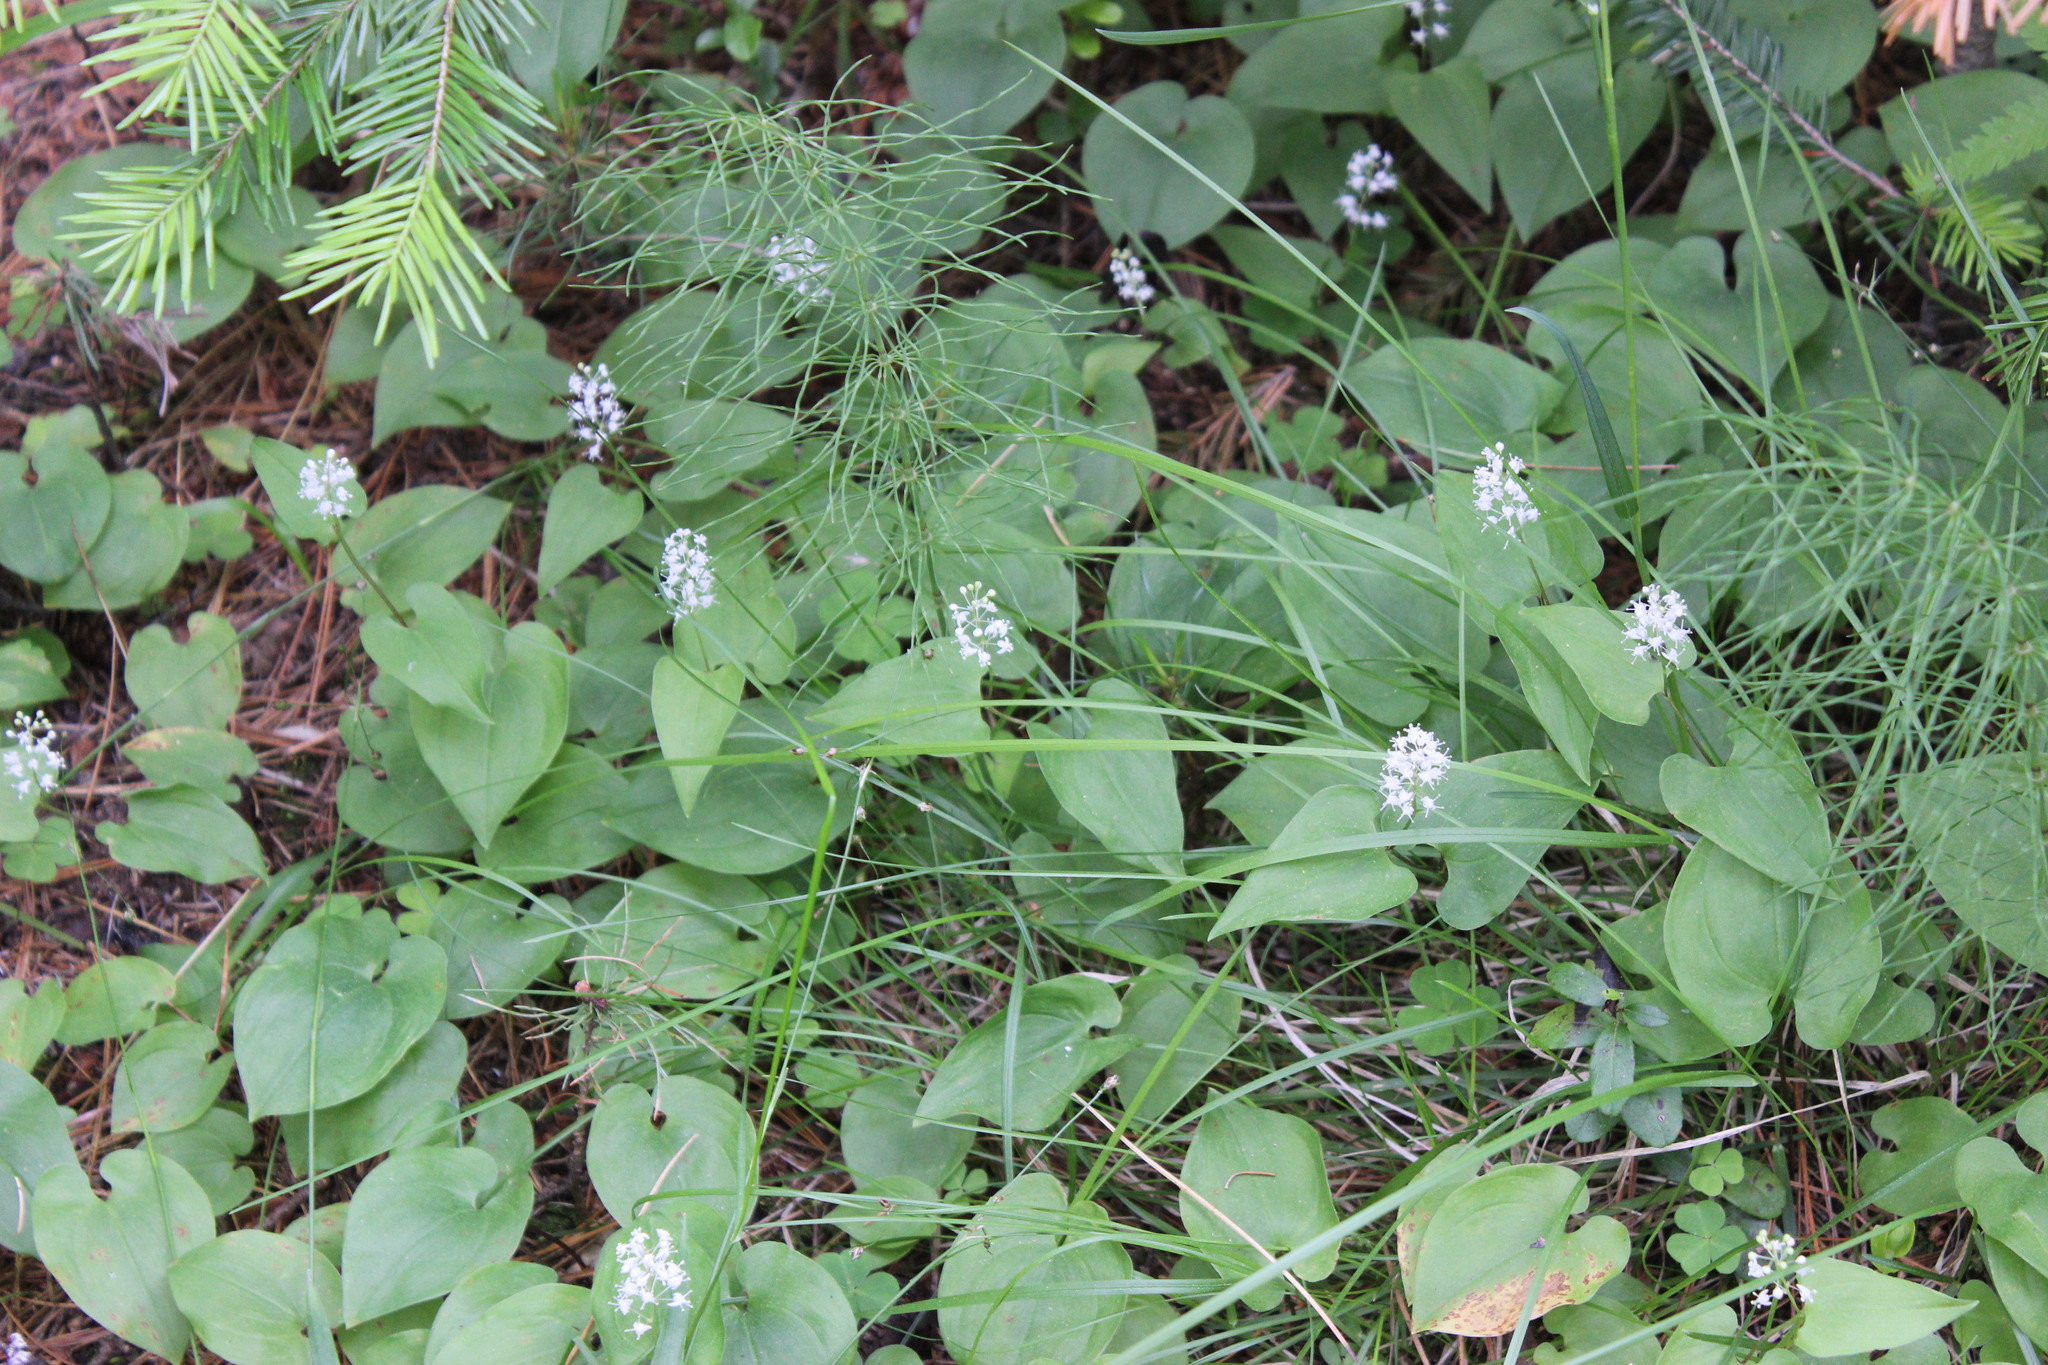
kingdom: Plantae
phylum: Tracheophyta
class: Liliopsida
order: Asparagales
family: Asparagaceae
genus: Maianthemum
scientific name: Maianthemum bifolium
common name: May lily
